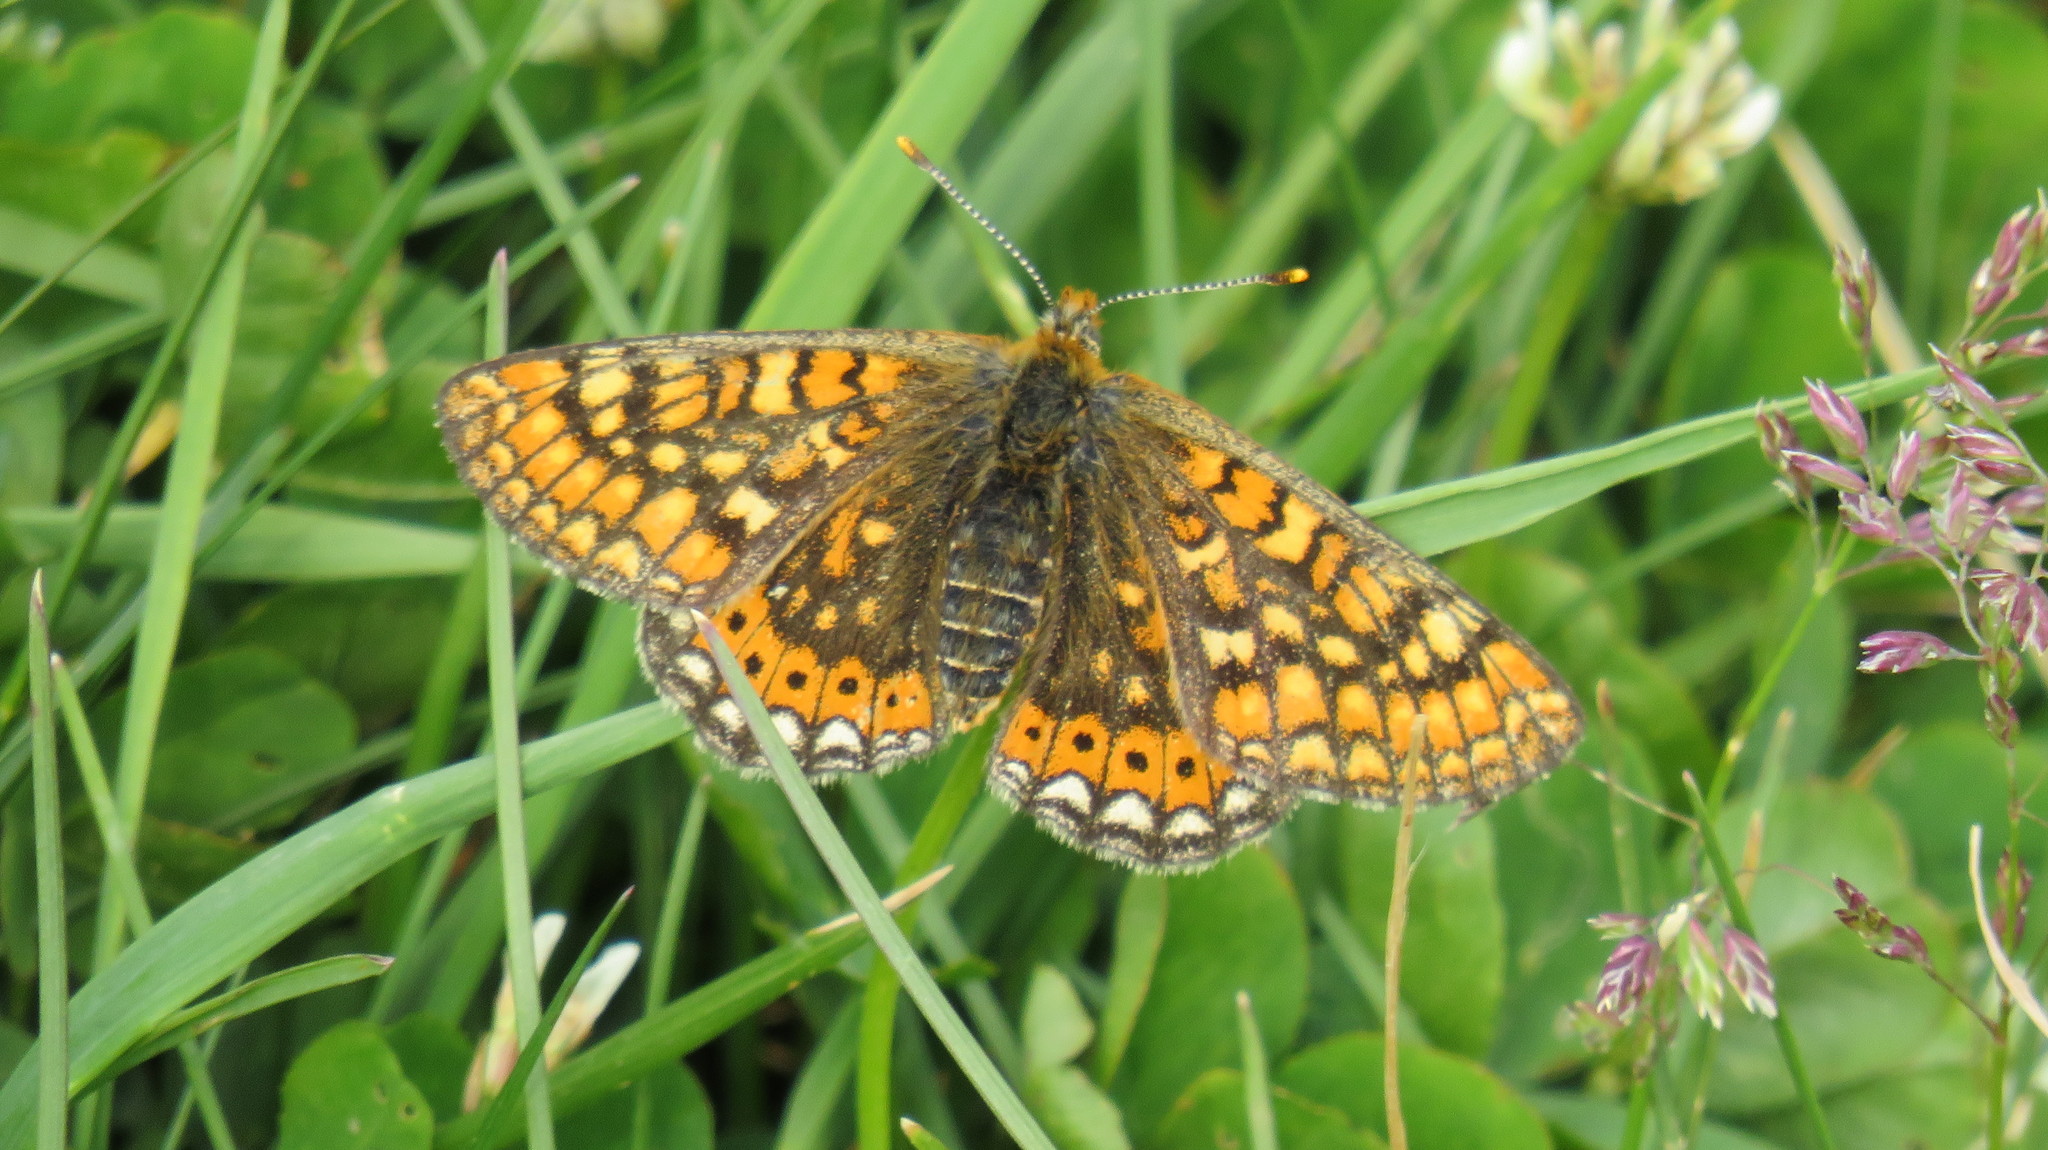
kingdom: Animalia
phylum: Arthropoda
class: Insecta
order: Lepidoptera
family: Nymphalidae
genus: Euphydryas
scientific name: Euphydryas aurinia
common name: Marsh fritillary
